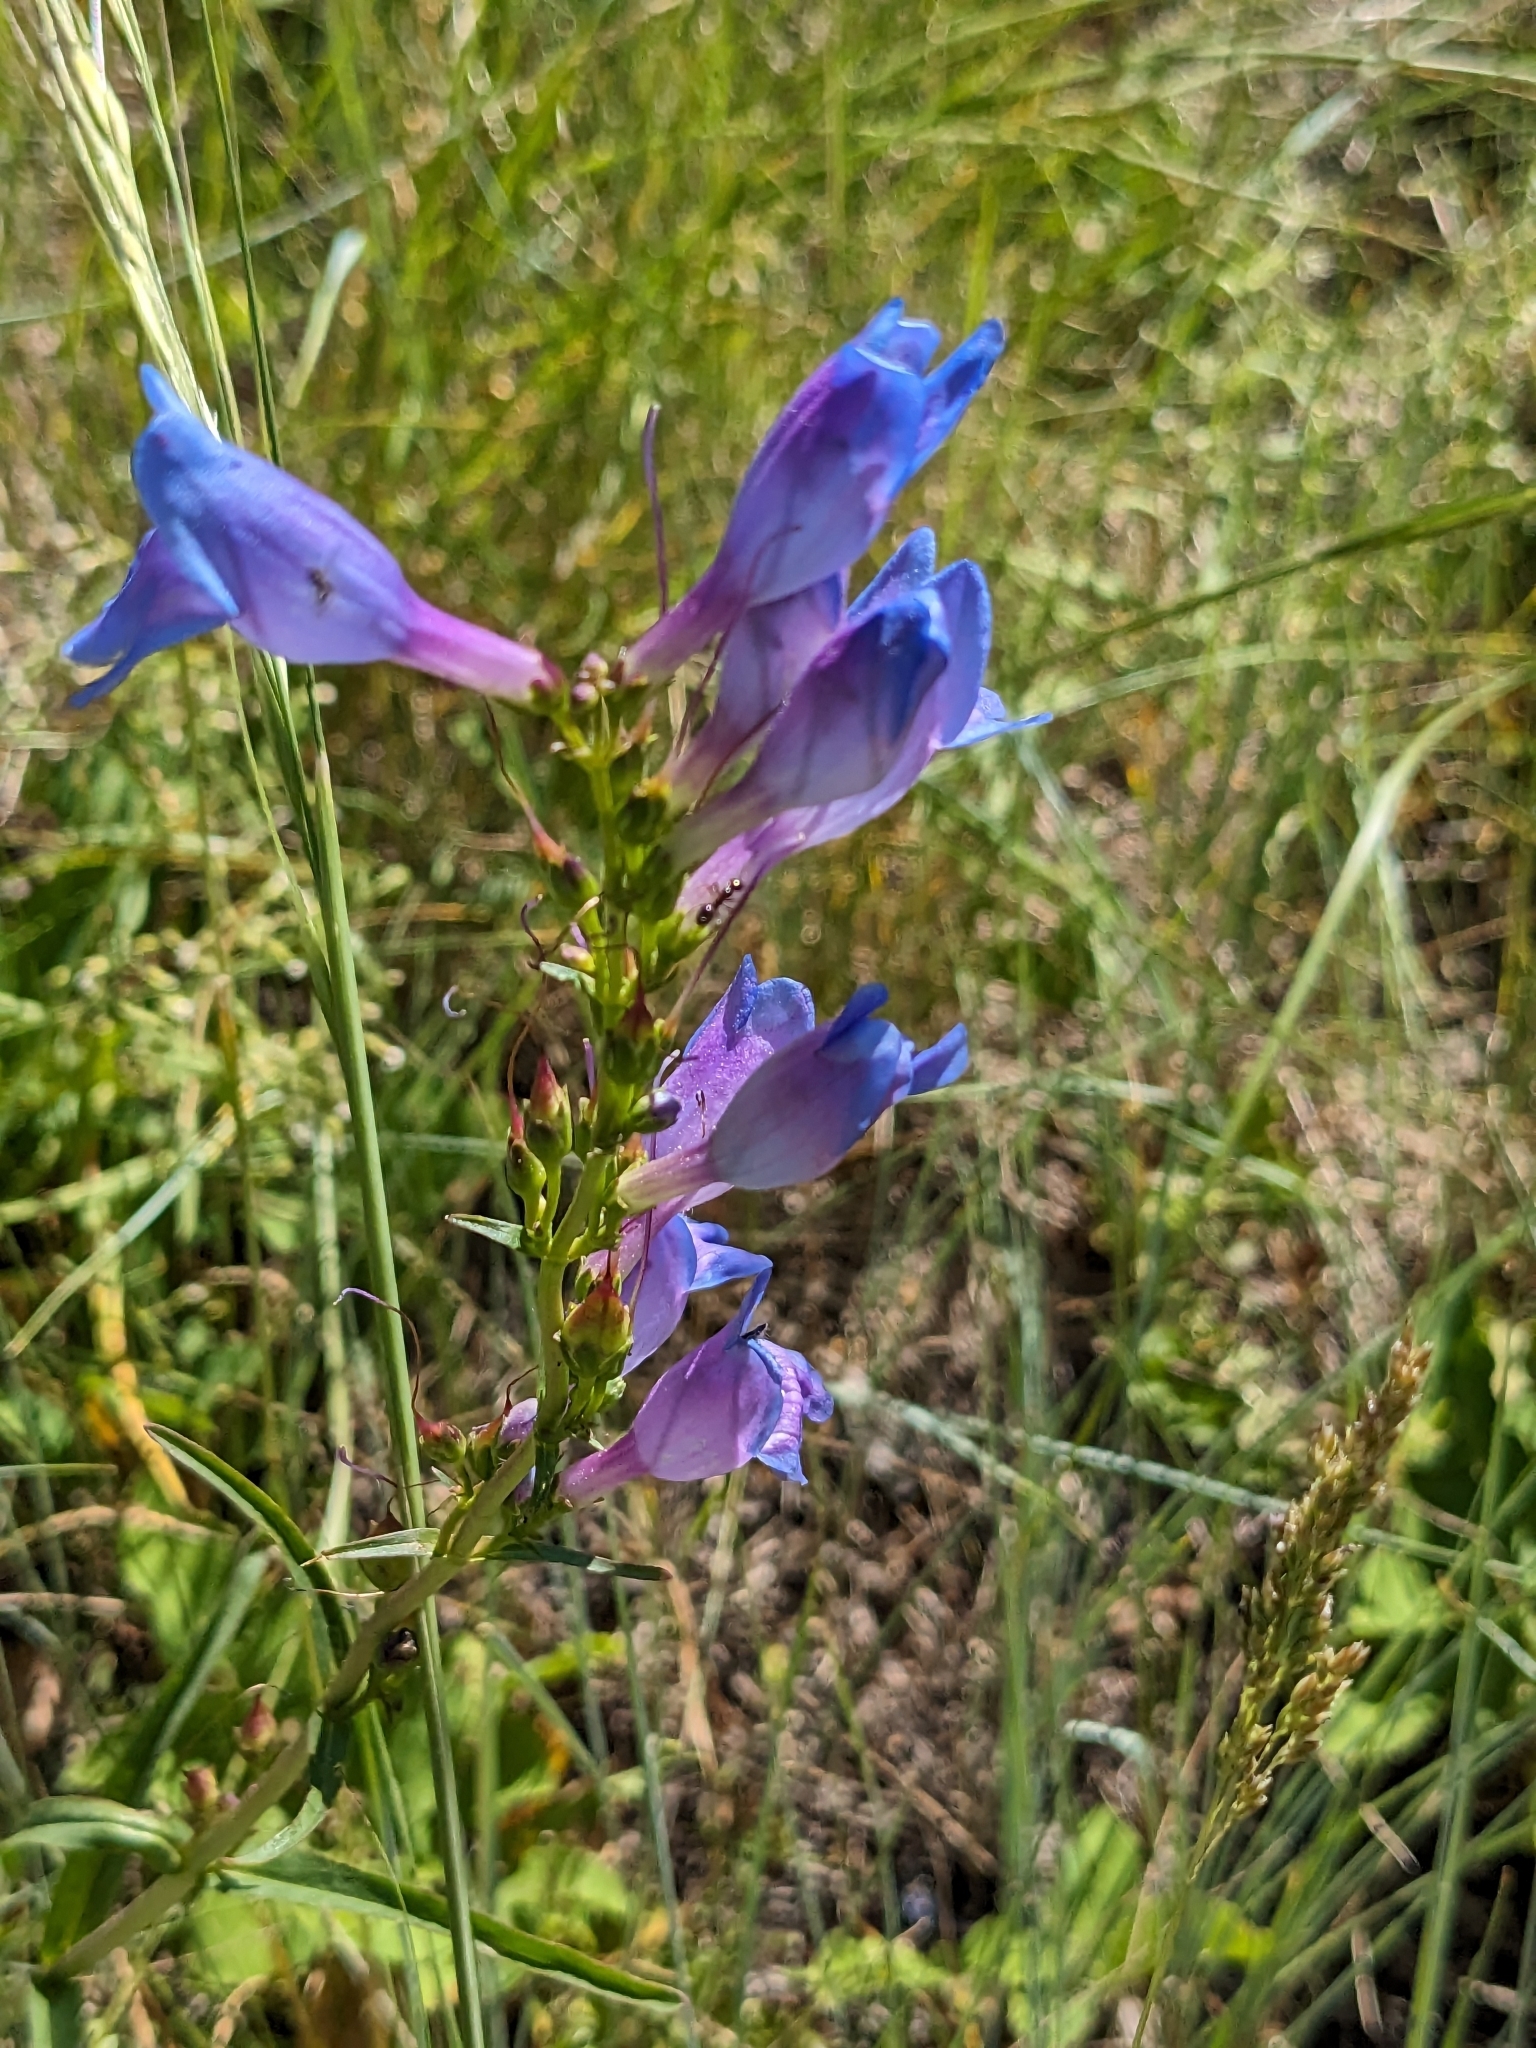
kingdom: Plantae
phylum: Tracheophyta
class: Magnoliopsida
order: Lamiales
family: Plantaginaceae
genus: Penstemon
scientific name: Penstemon strictus
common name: Rocky mountain penstemon
